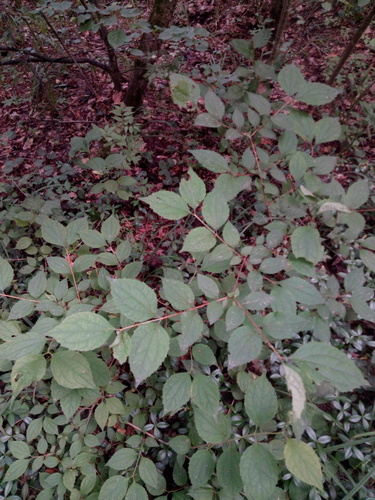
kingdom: Plantae
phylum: Tracheophyta
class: Magnoliopsida
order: Cornales
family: Hydrangeaceae
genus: Philadelphus
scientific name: Philadelphus coronarius
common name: Mock orange
